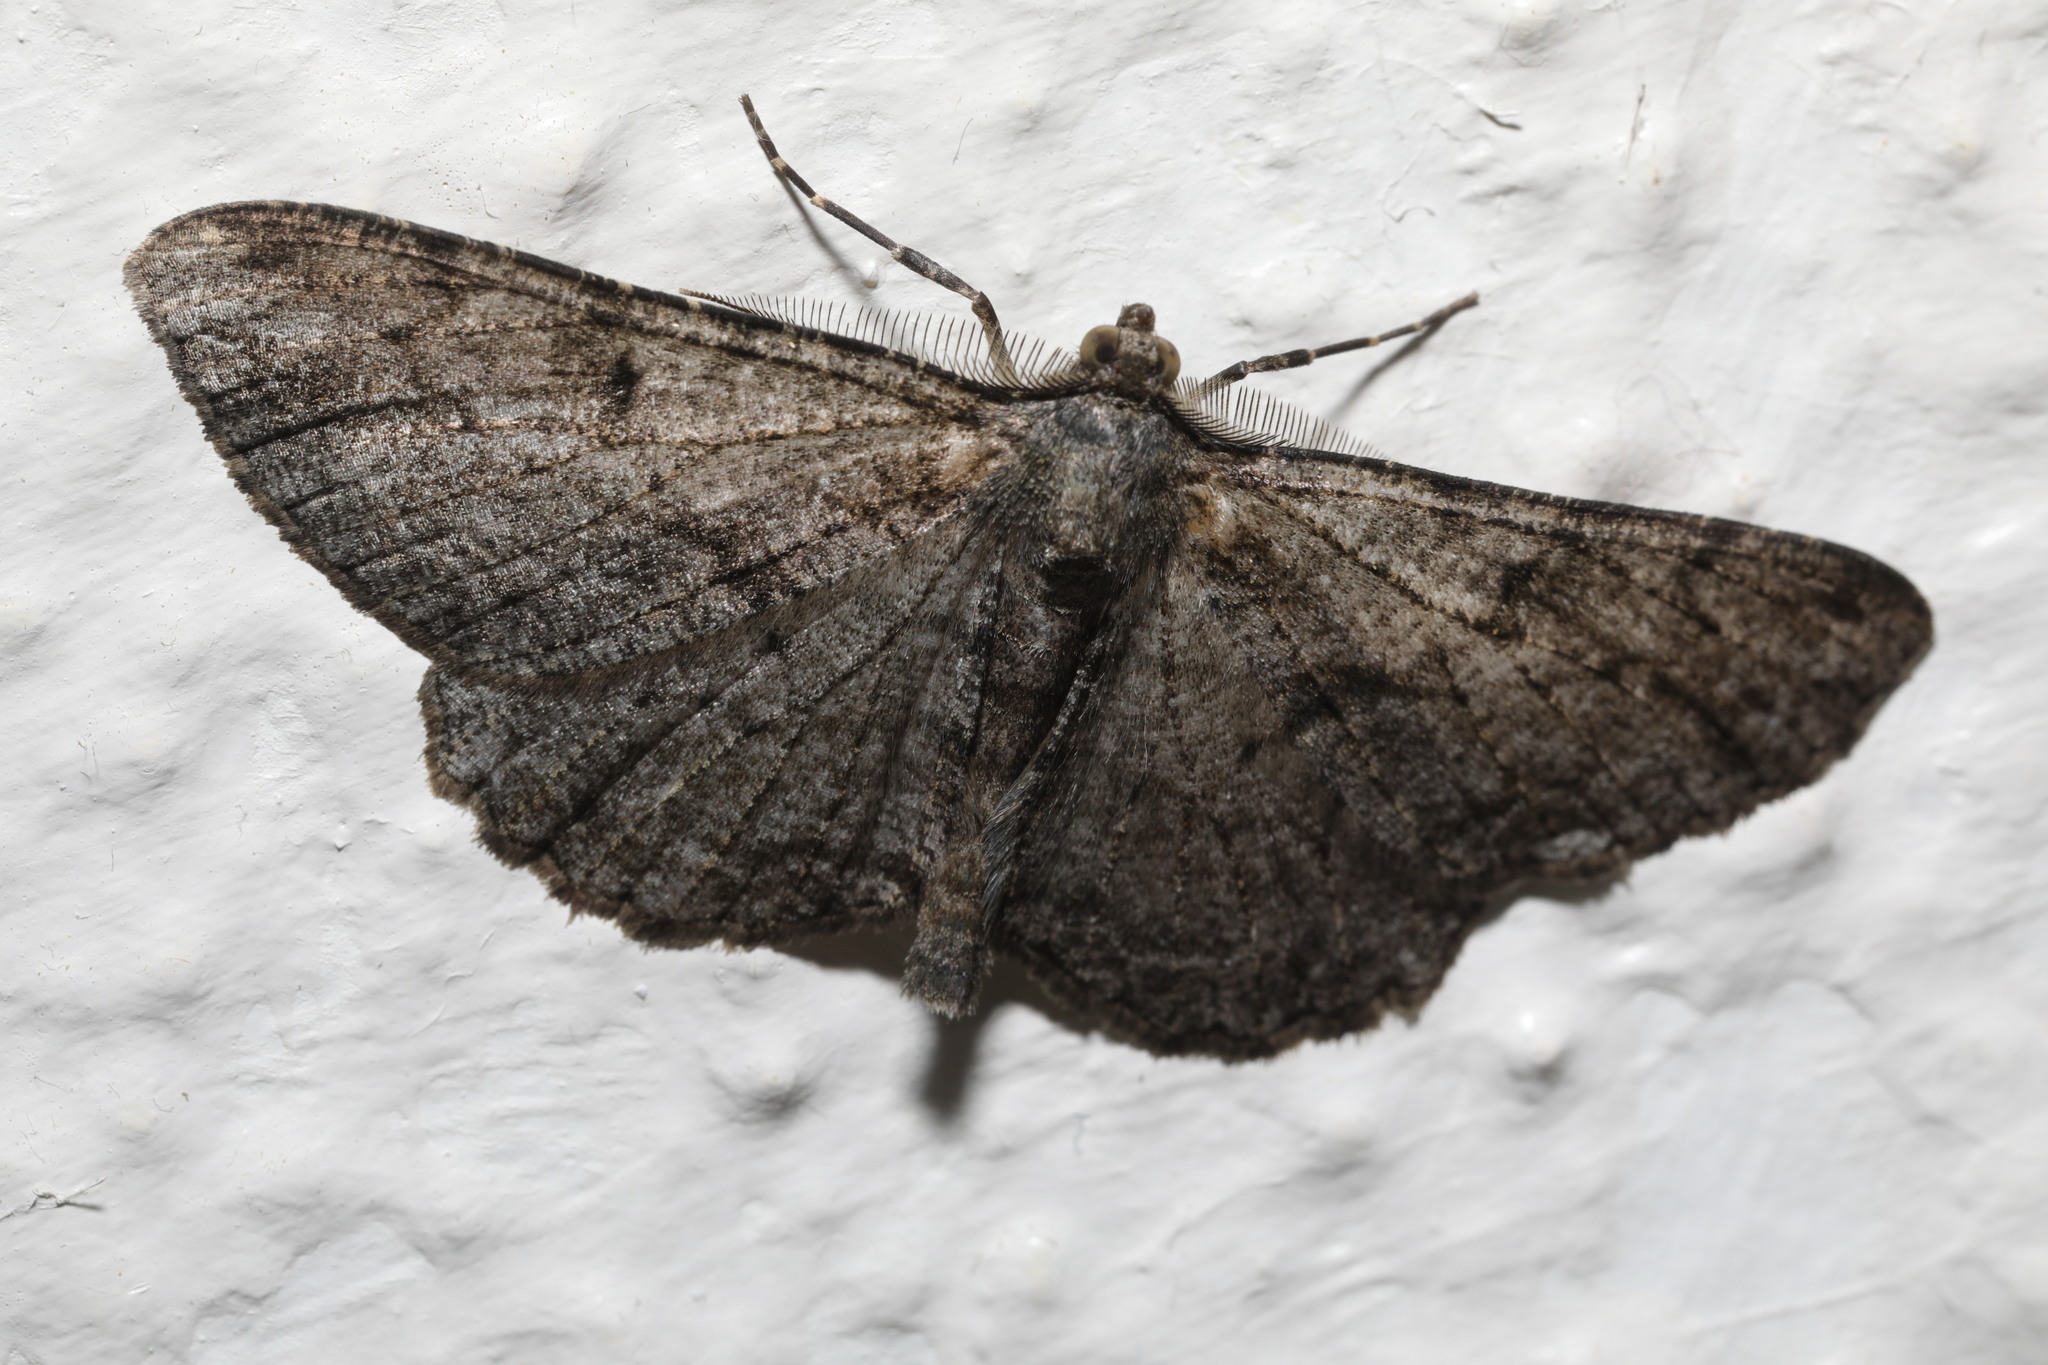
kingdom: Animalia
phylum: Arthropoda
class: Insecta
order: Lepidoptera
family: Geometridae
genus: Peribatodes
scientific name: Peribatodes rhomboidaria
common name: Willow beauty
